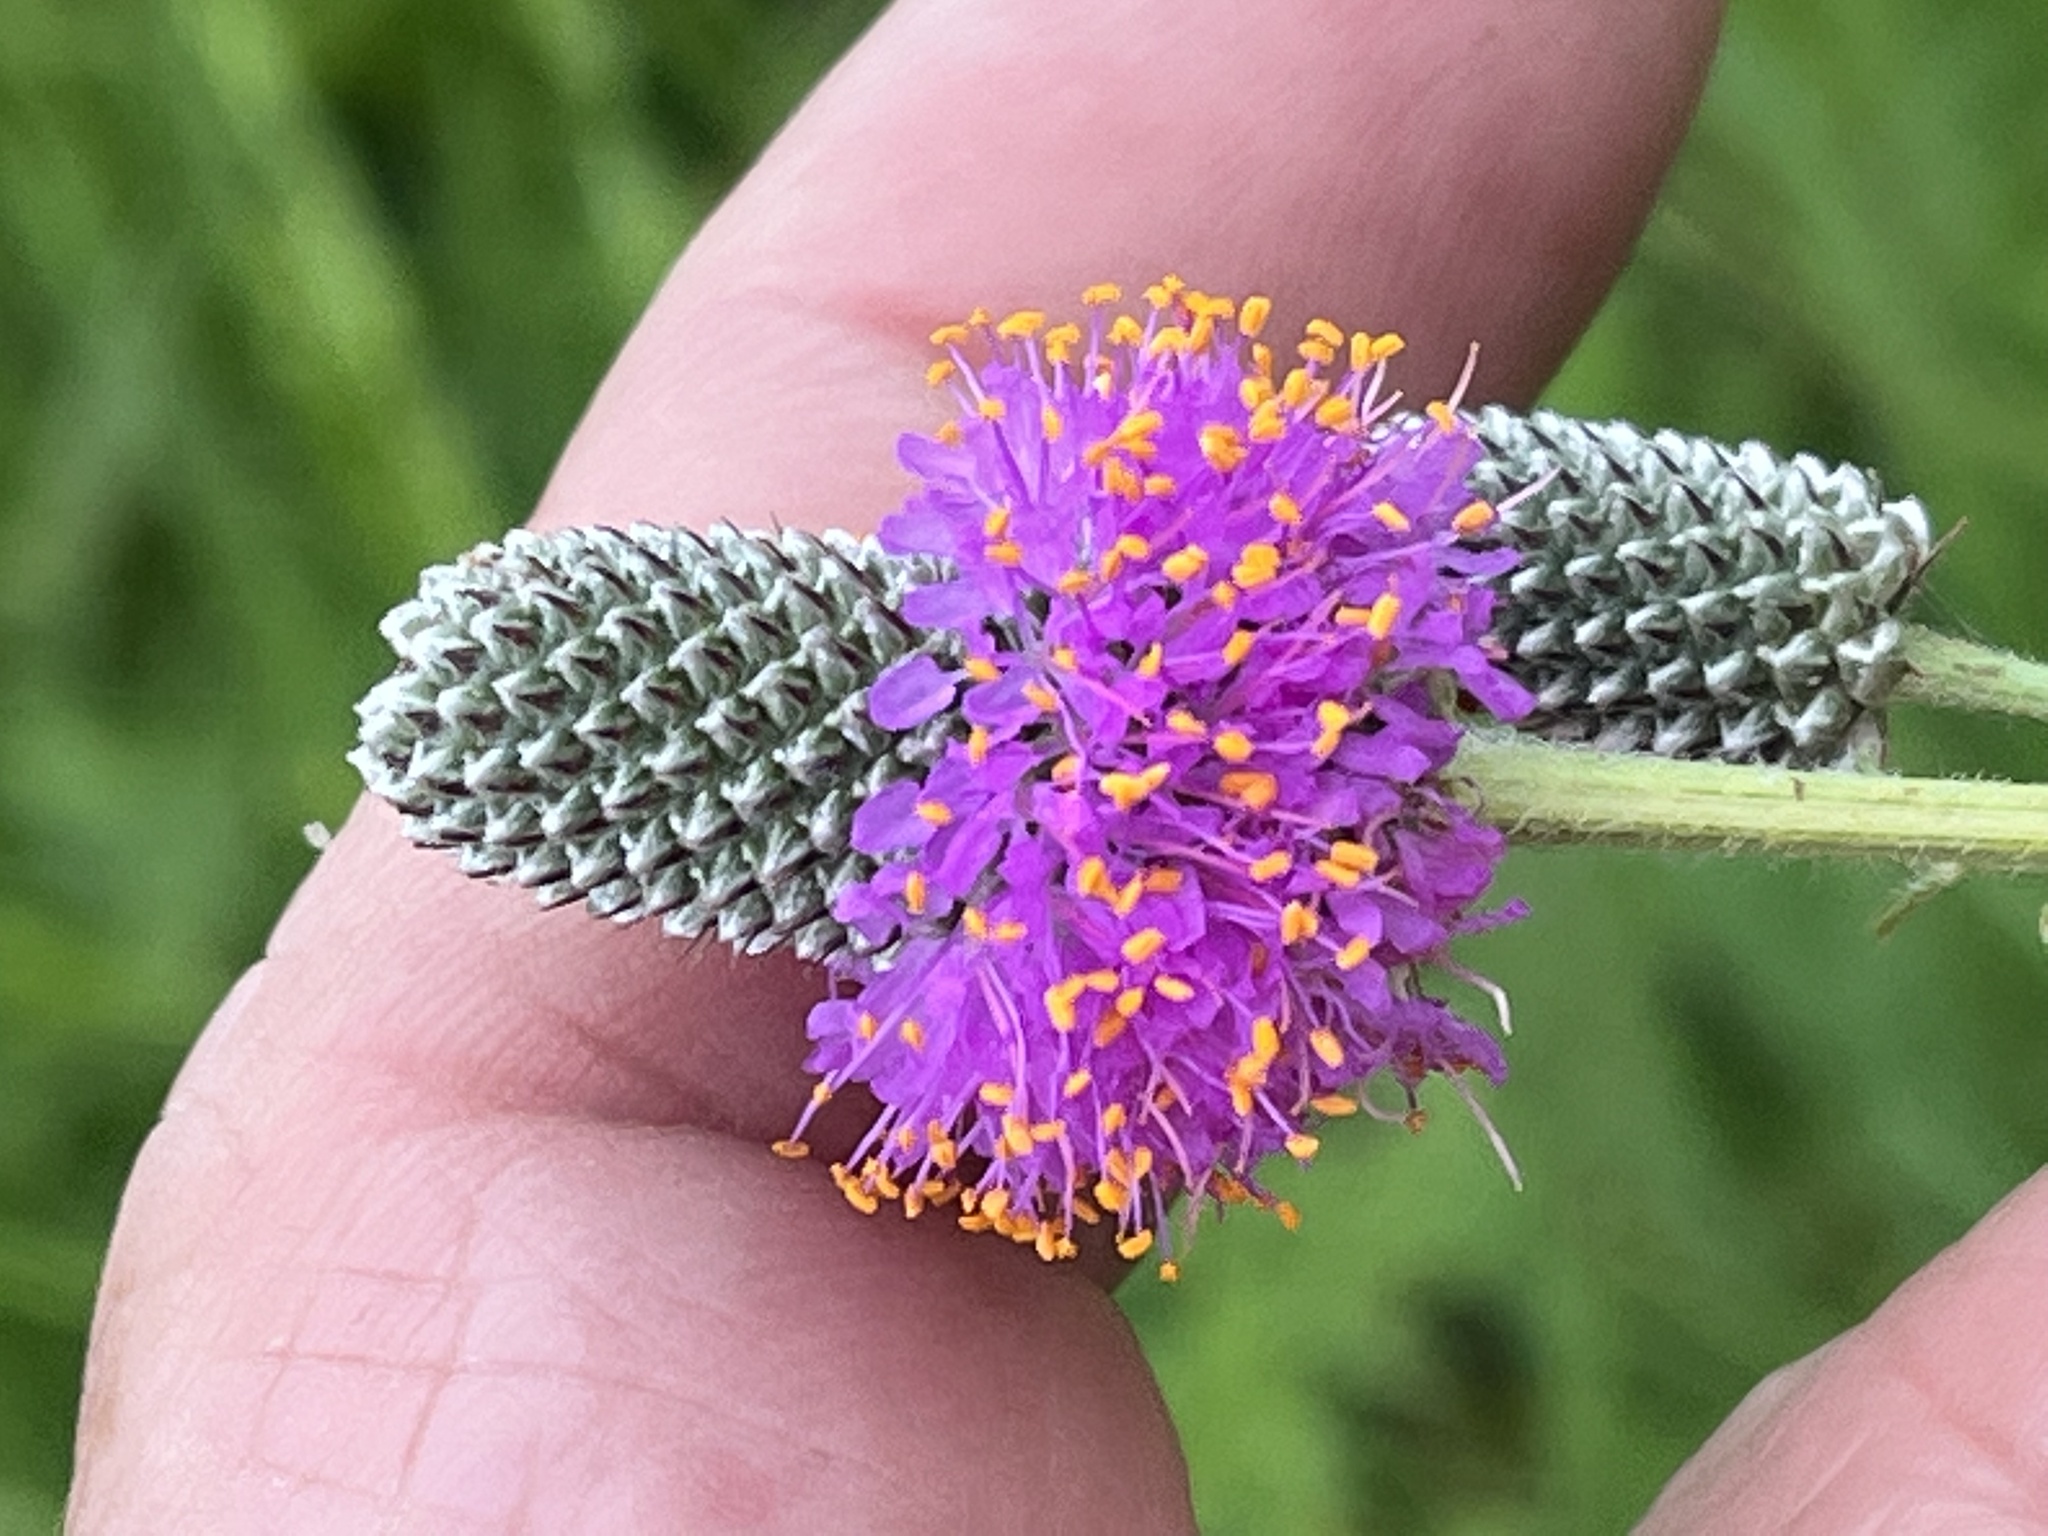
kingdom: Plantae
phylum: Tracheophyta
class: Magnoliopsida
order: Fabales
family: Fabaceae
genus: Dalea
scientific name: Dalea purpurea
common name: Purple prairie-clover
